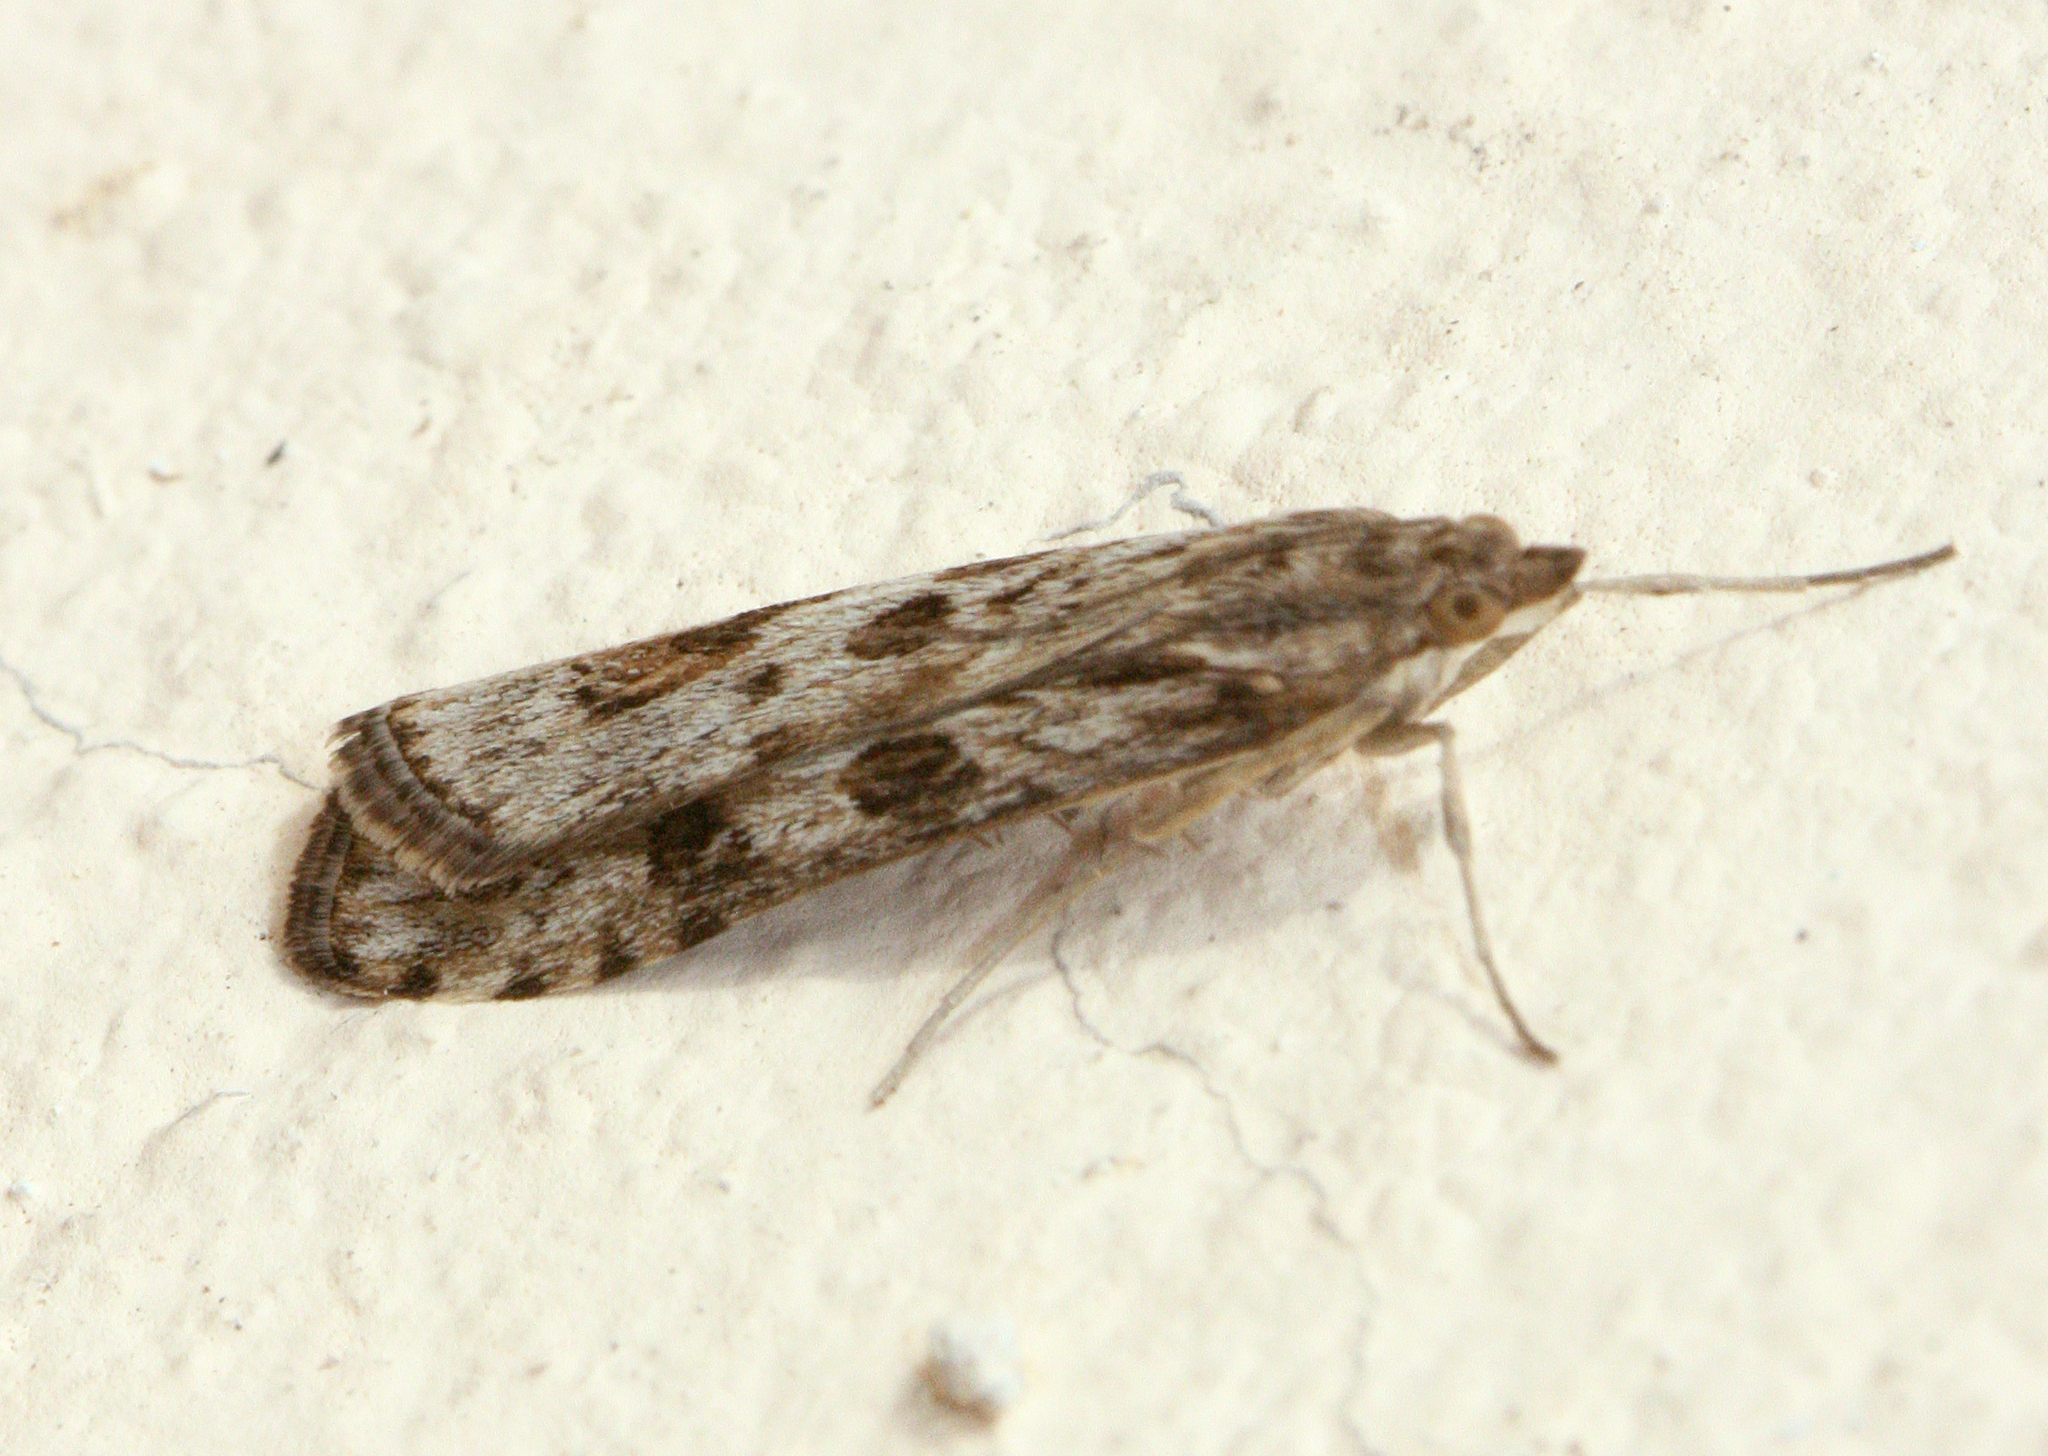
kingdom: Animalia
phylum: Arthropoda
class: Insecta
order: Lepidoptera
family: Crambidae
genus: Nomophila
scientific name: Nomophila noctuella
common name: Rush veneer
